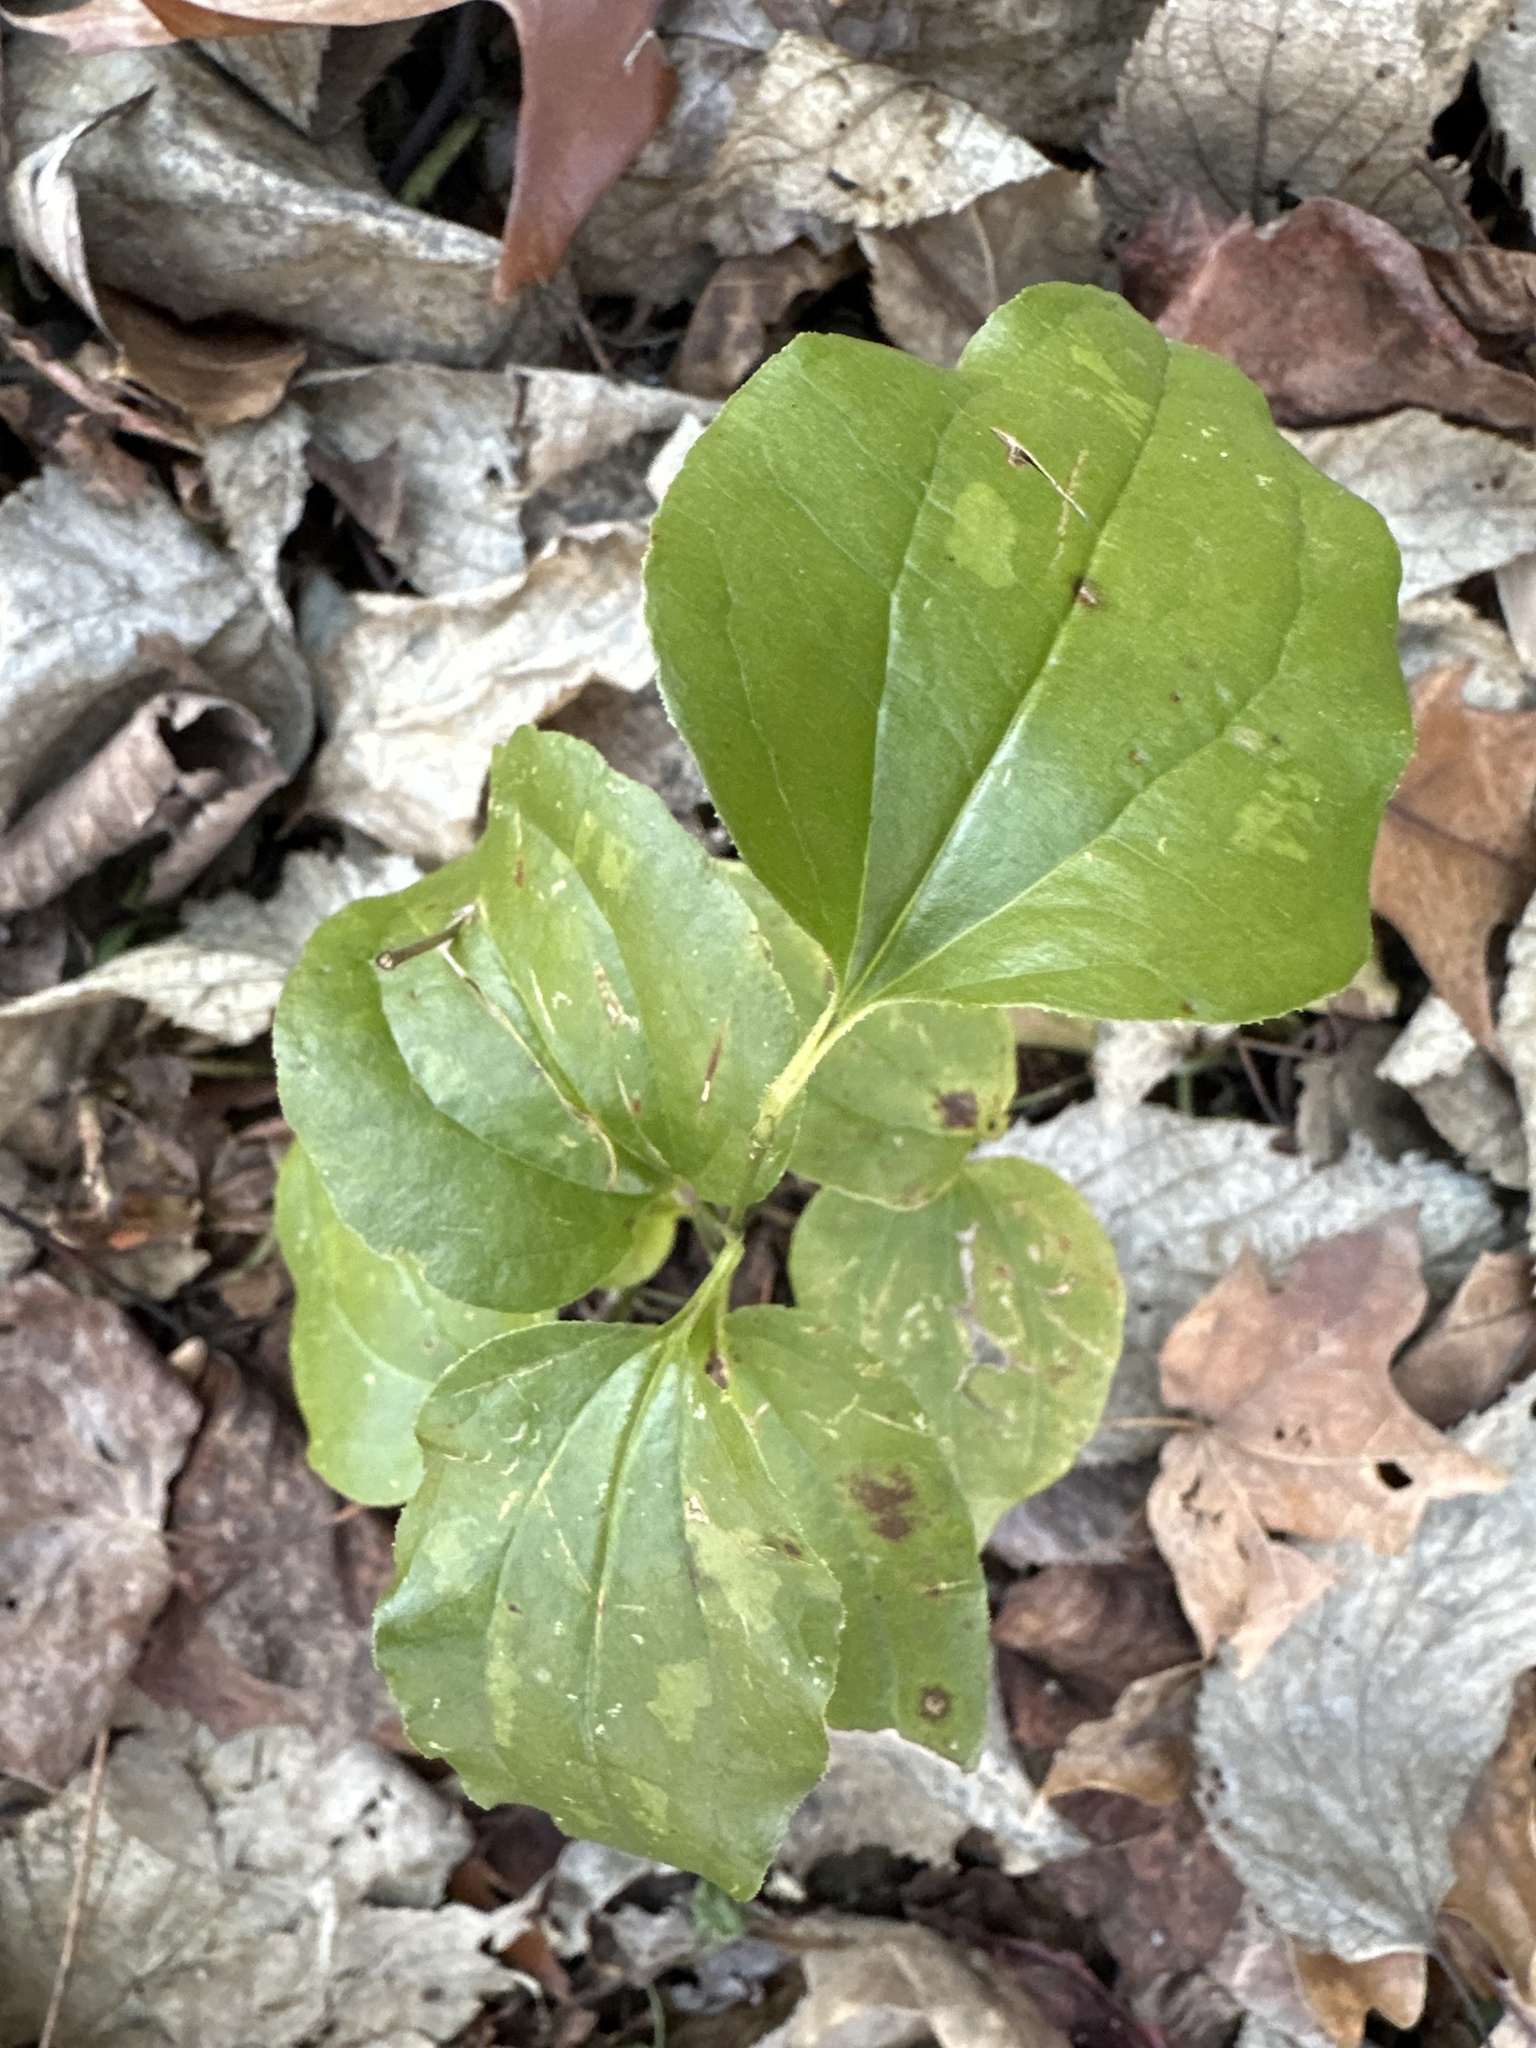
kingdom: Plantae
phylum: Tracheophyta
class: Liliopsida
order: Liliales
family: Smilacaceae
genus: Smilax
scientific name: Smilax tamnoides
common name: Hellfetter
